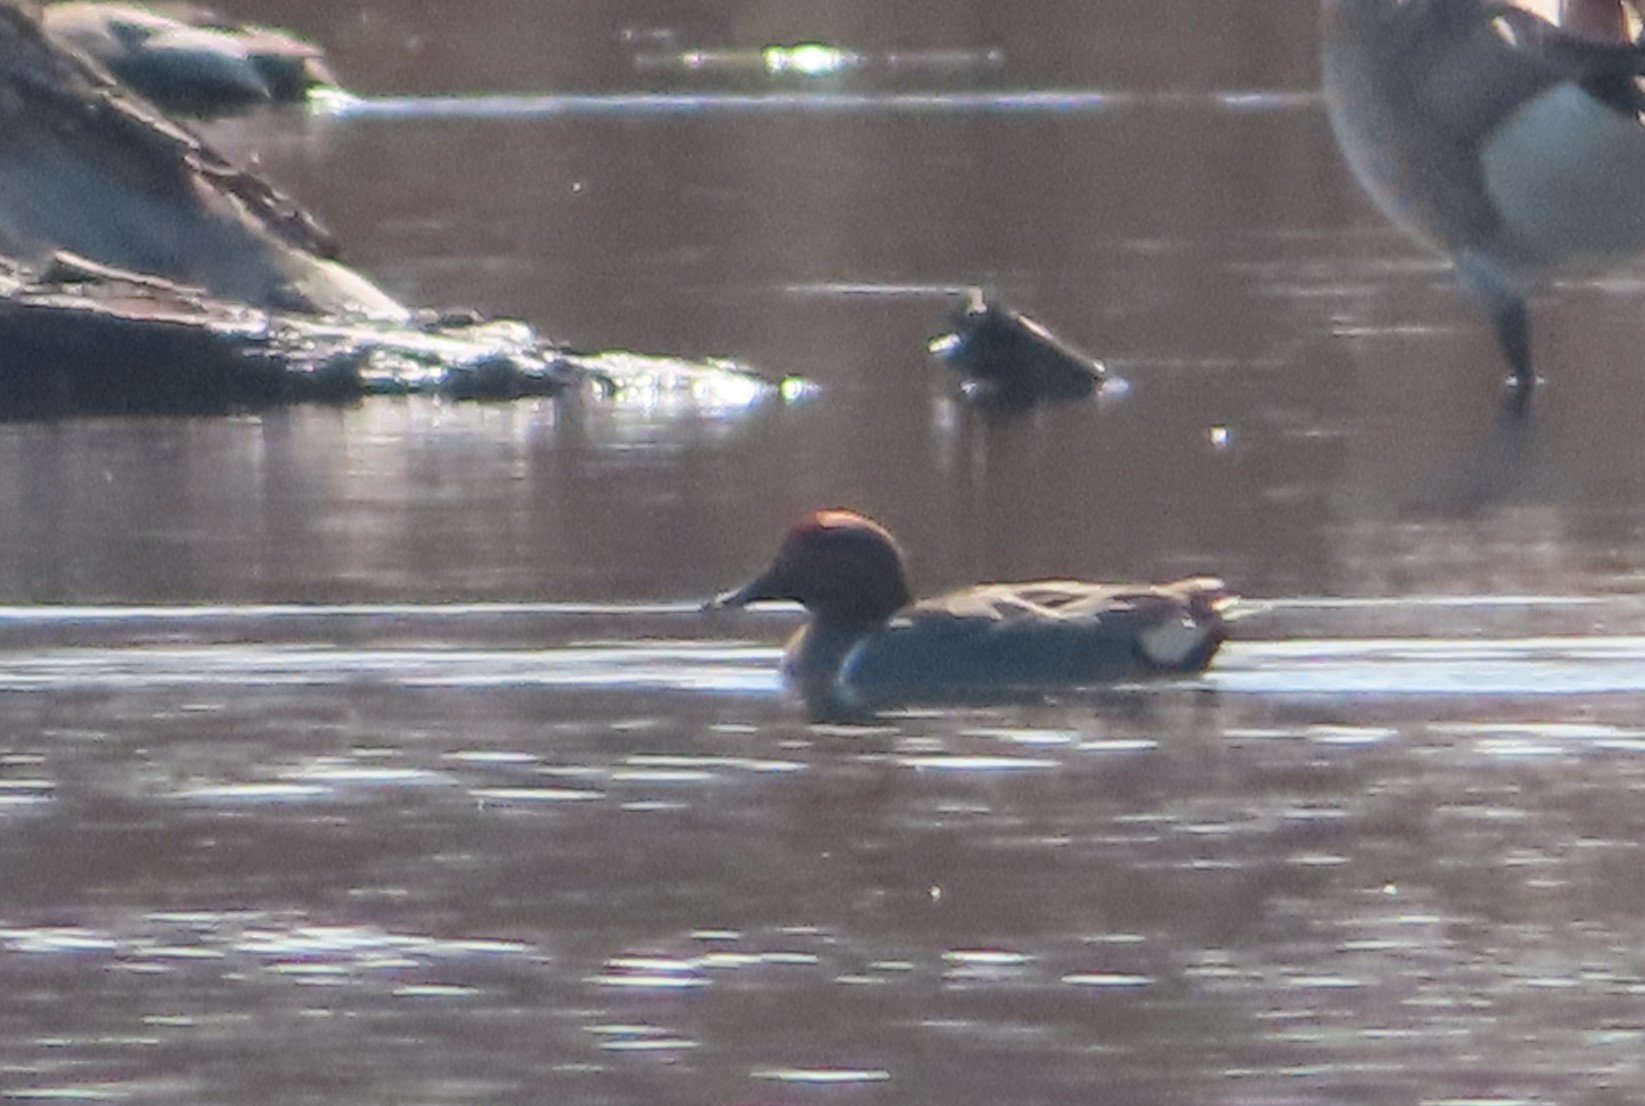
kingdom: Animalia
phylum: Chordata
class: Aves
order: Anseriformes
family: Anatidae
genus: Anas
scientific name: Anas crecca
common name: Eurasian teal
